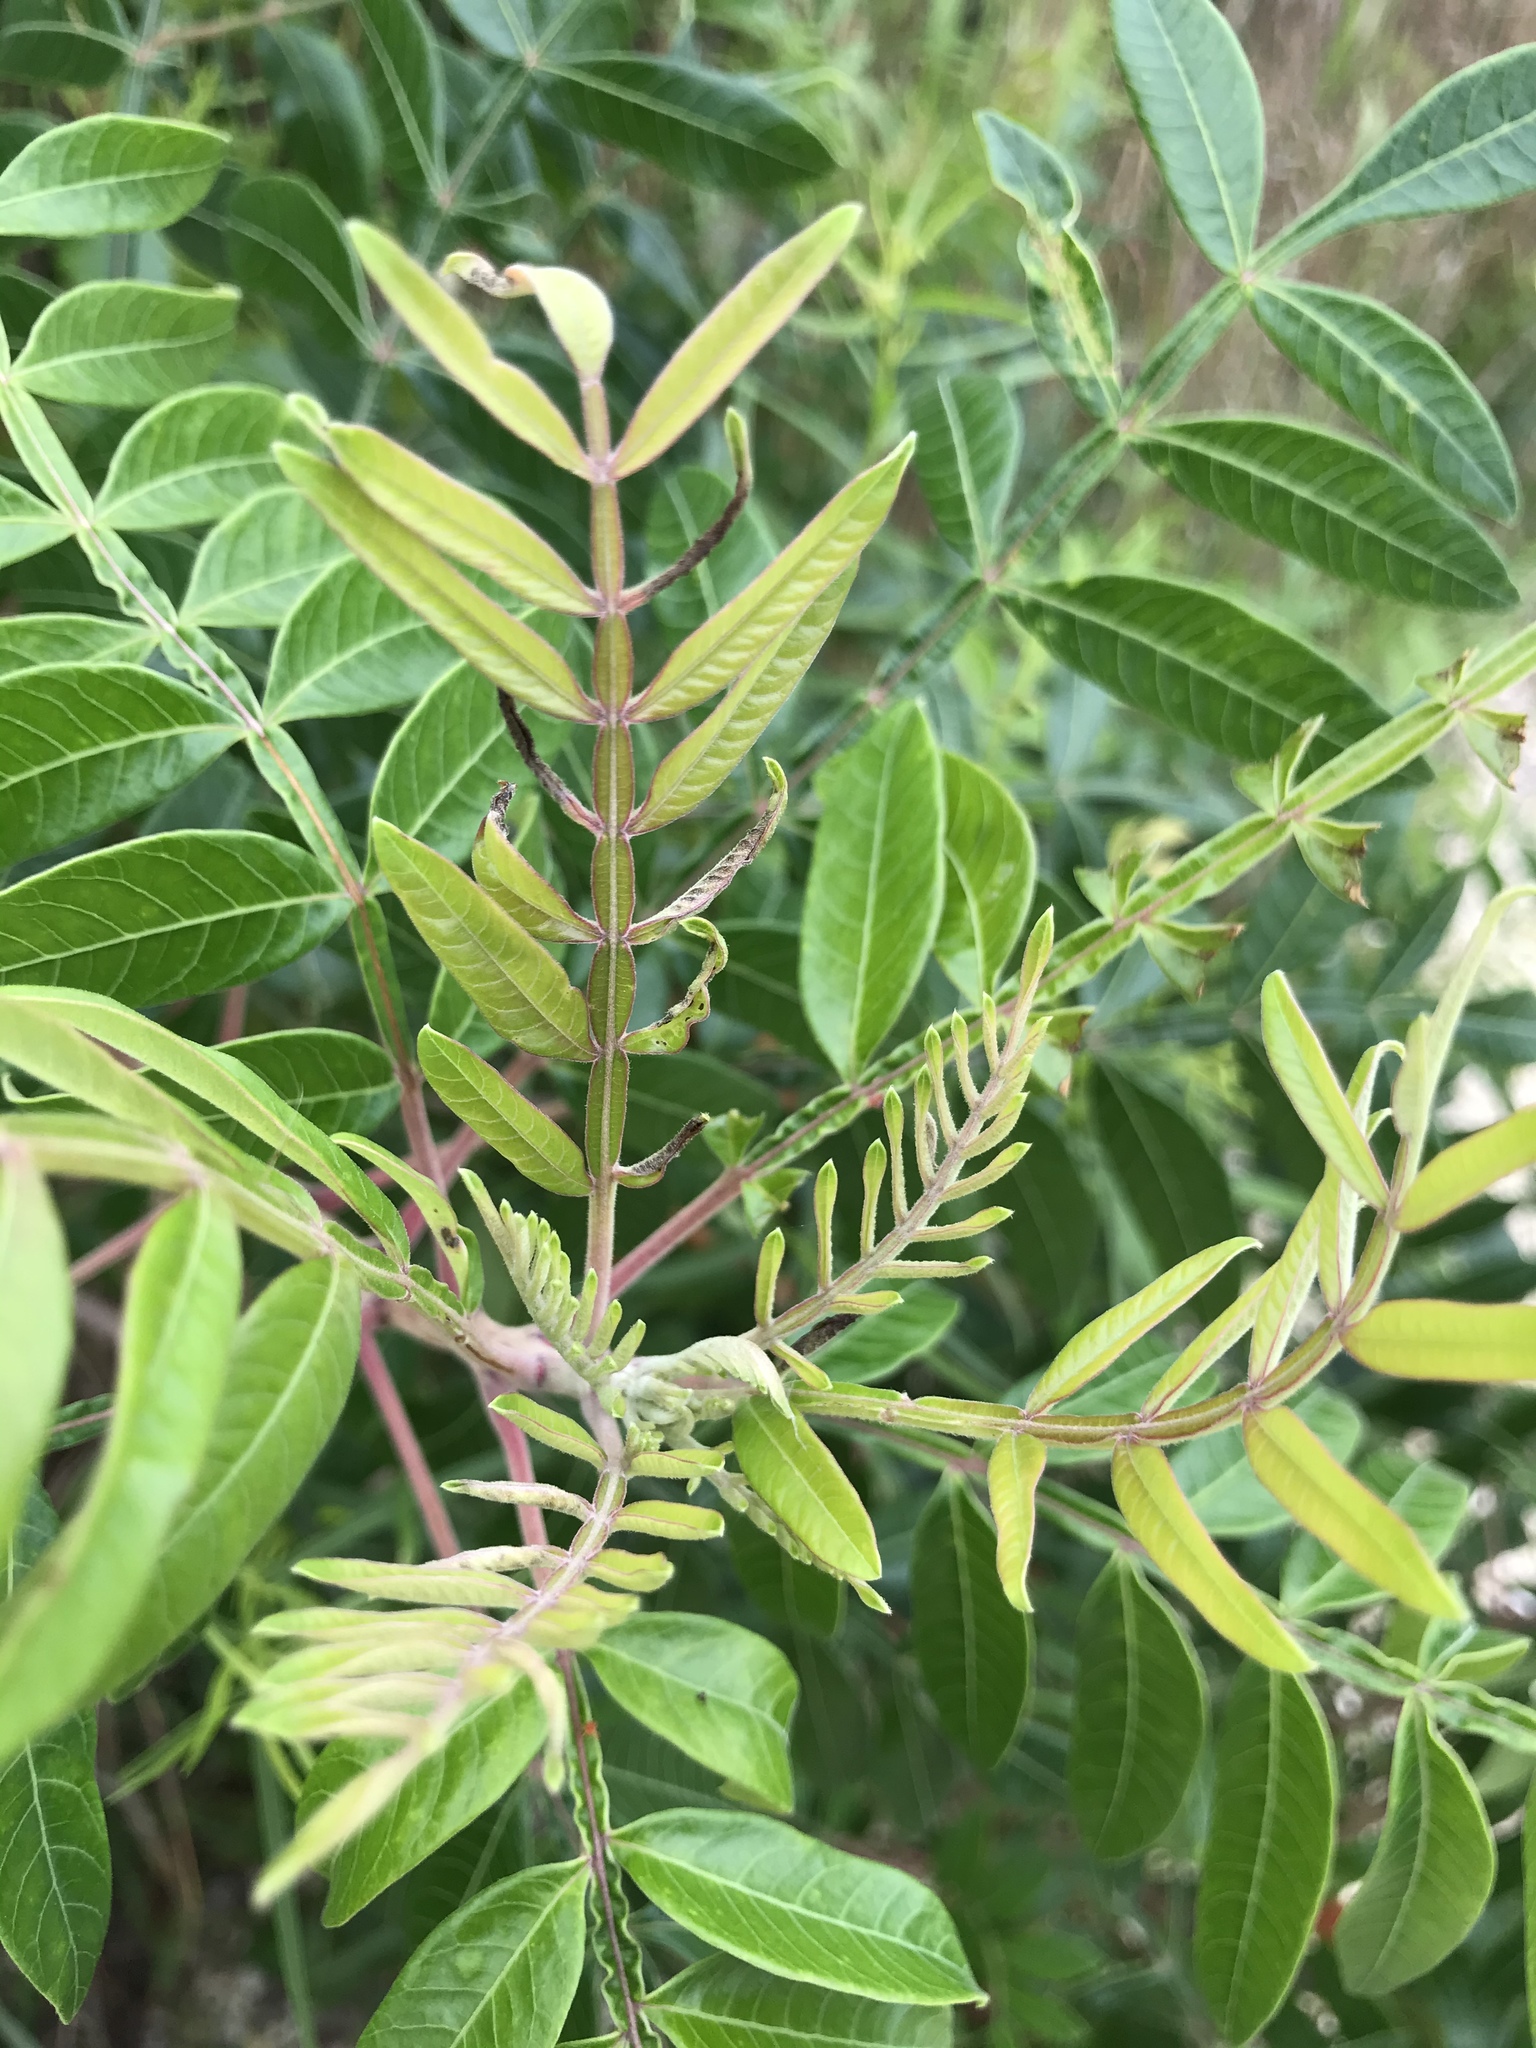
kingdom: Plantae
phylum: Tracheophyta
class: Magnoliopsida
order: Sapindales
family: Anacardiaceae
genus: Rhus
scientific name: Rhus copallina
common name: Shining sumac
